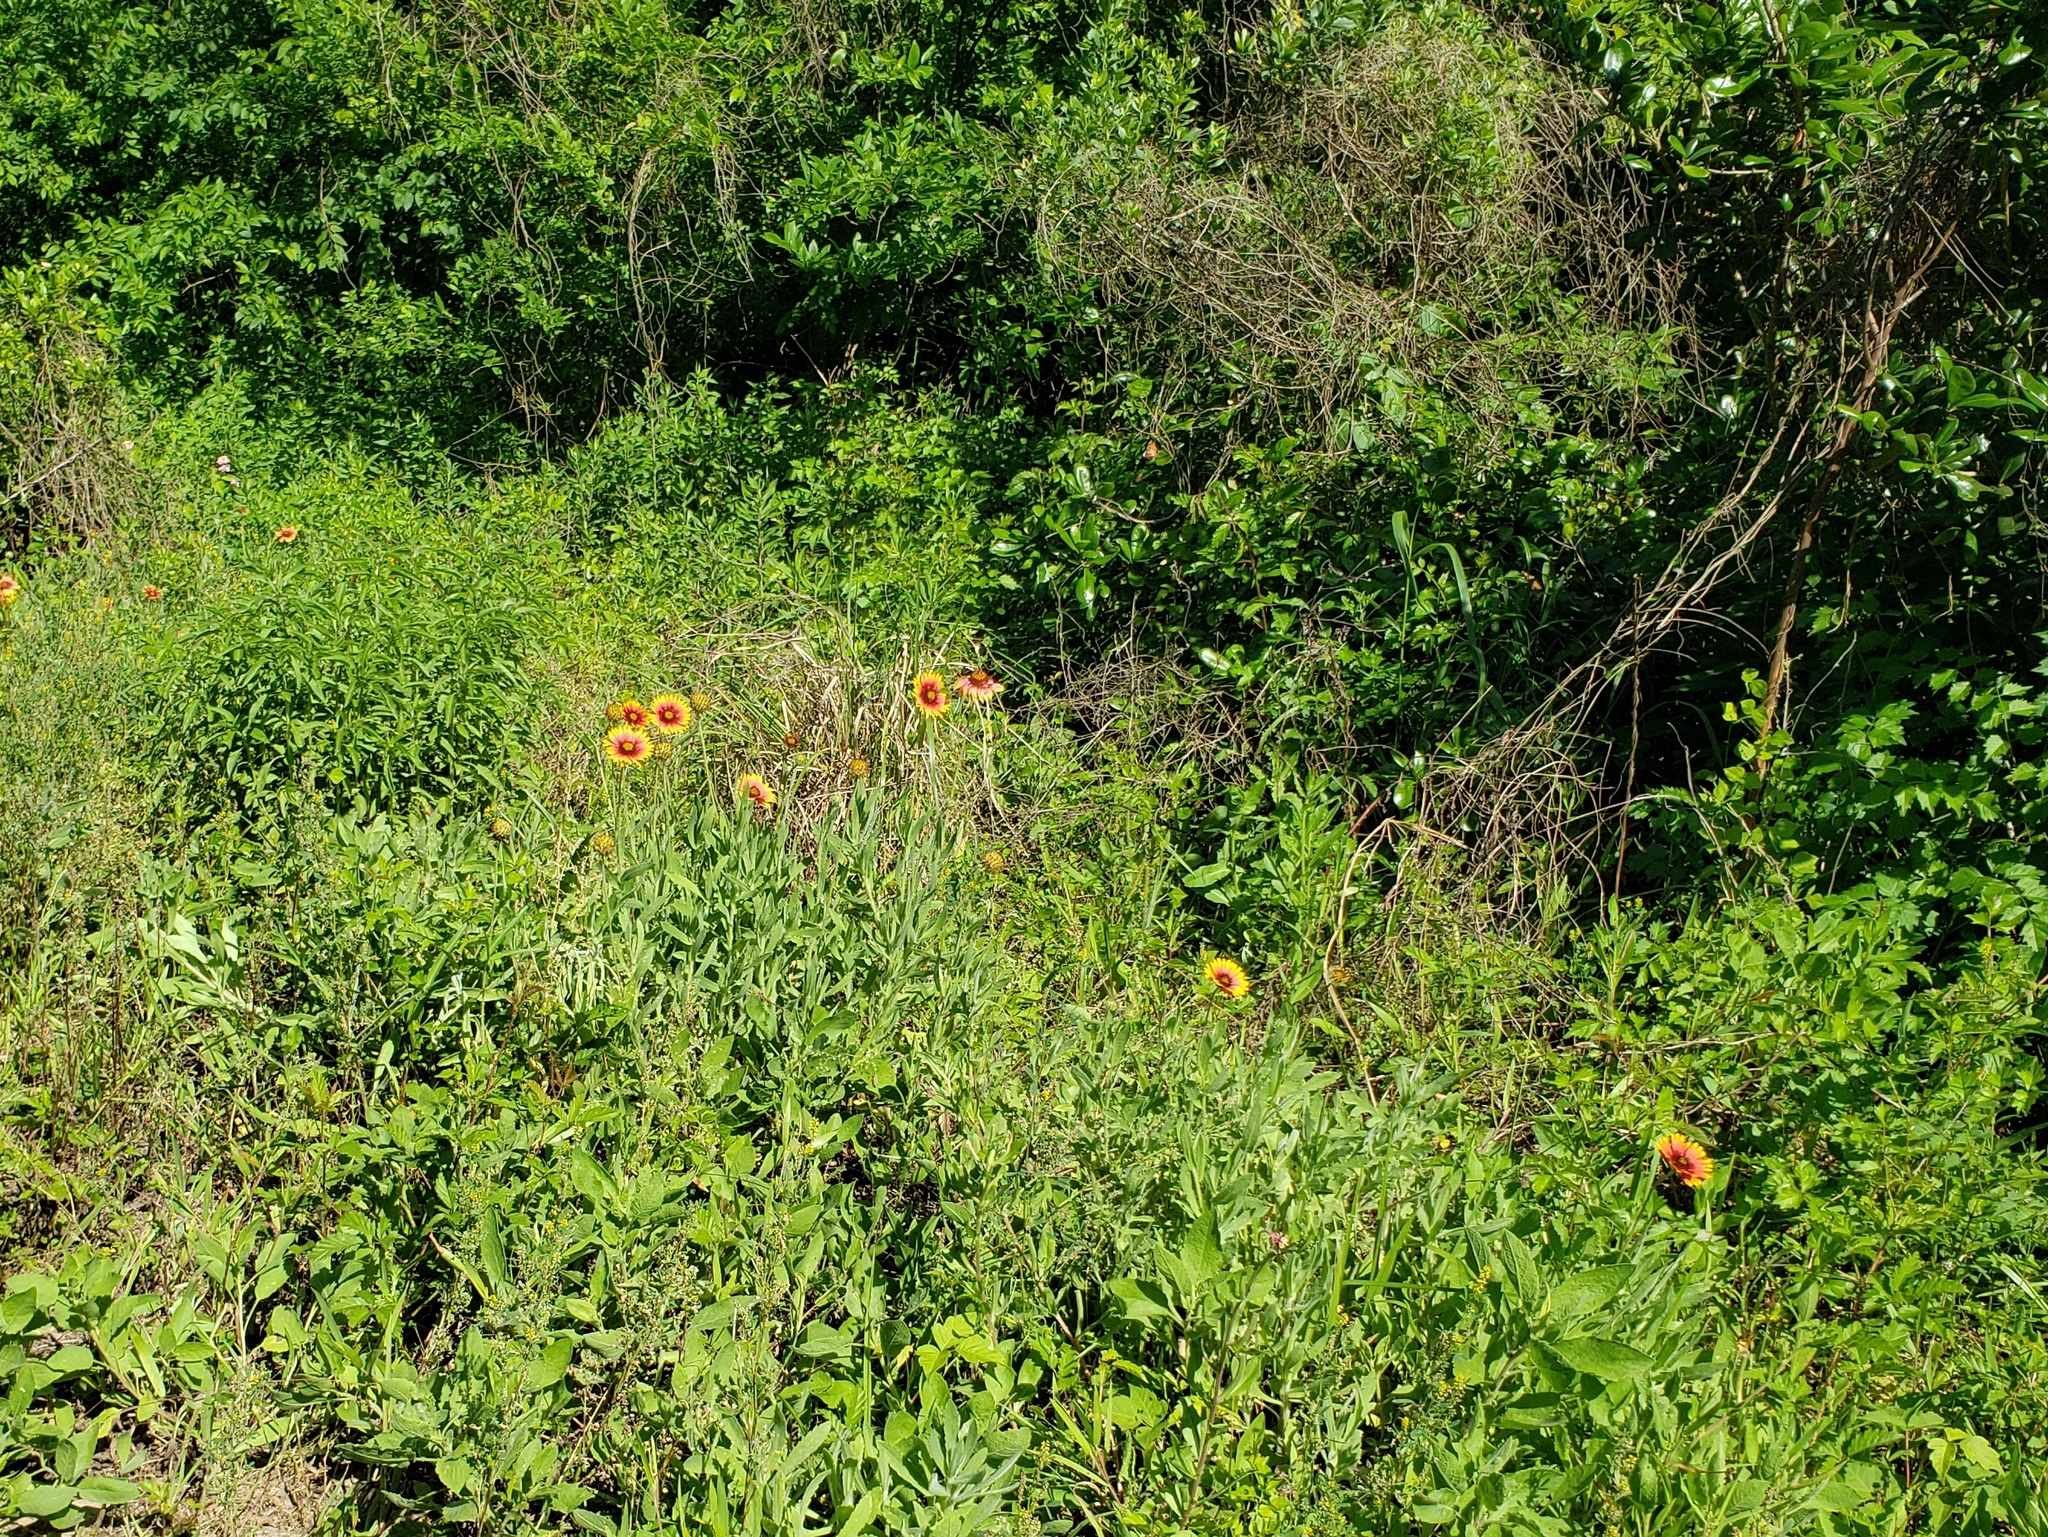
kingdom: Plantae
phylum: Tracheophyta
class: Magnoliopsida
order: Asterales
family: Asteraceae
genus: Gaillardia
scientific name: Gaillardia pulchella
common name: Firewheel
